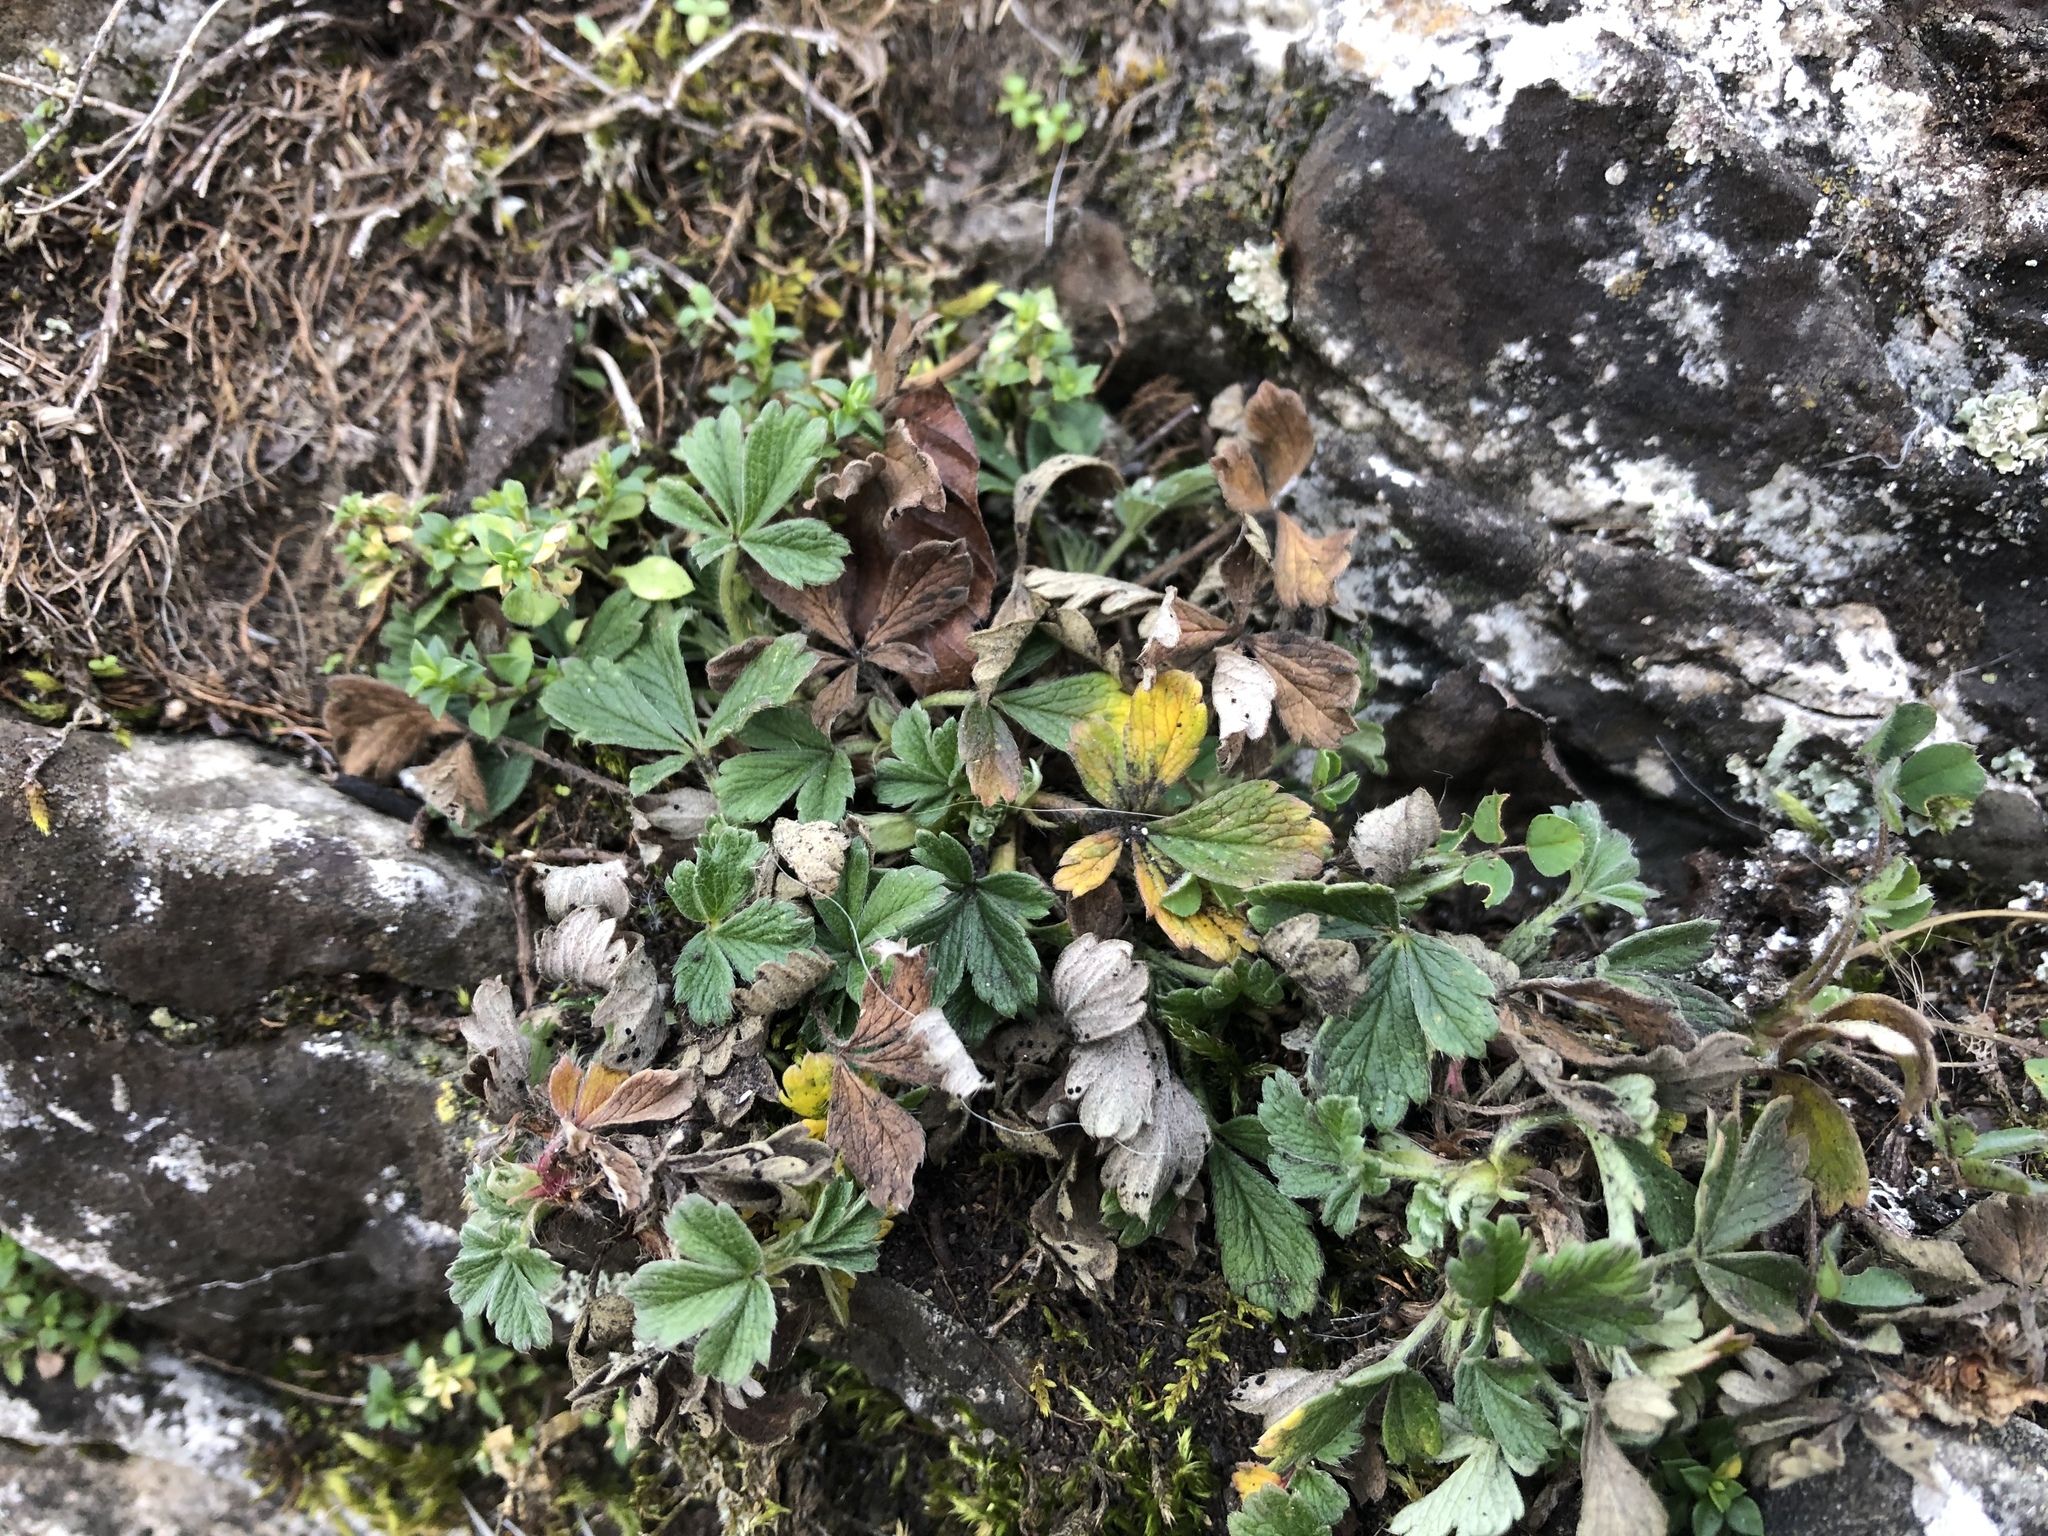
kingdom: Plantae
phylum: Tracheophyta
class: Magnoliopsida
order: Rosales
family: Rosaceae
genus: Potentilla
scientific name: Potentilla incana
